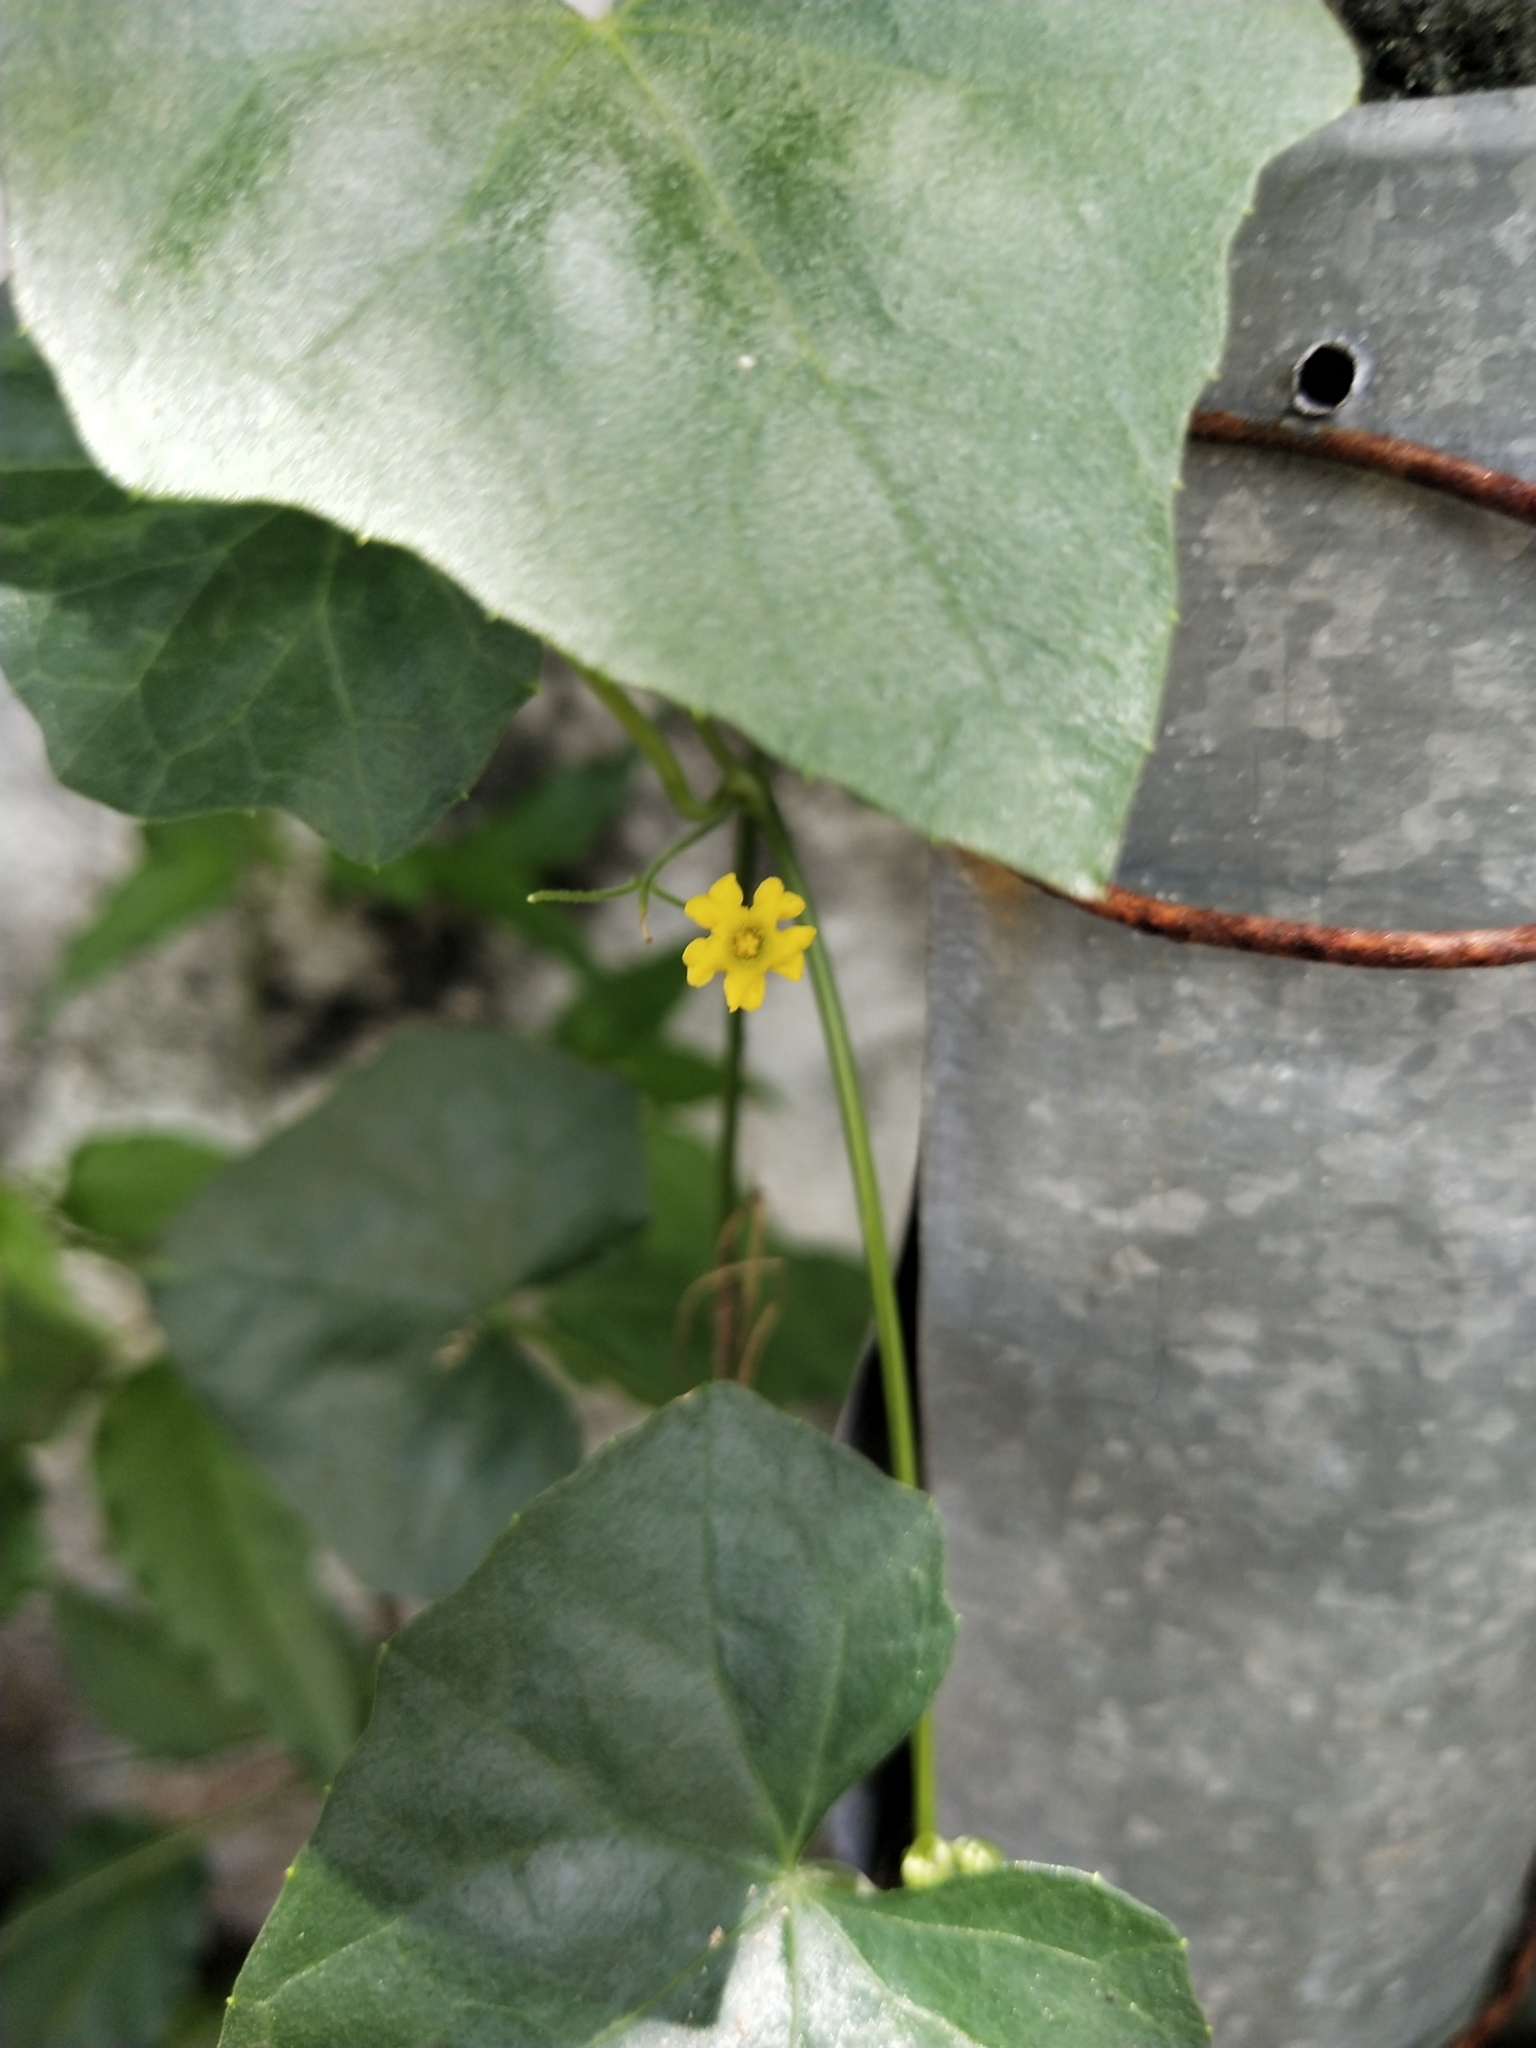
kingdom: Plantae
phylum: Tracheophyta
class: Magnoliopsida
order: Cucurbitales
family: Cucurbitaceae
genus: Melothria
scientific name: Melothria pendula
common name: Creeping-cucumber
